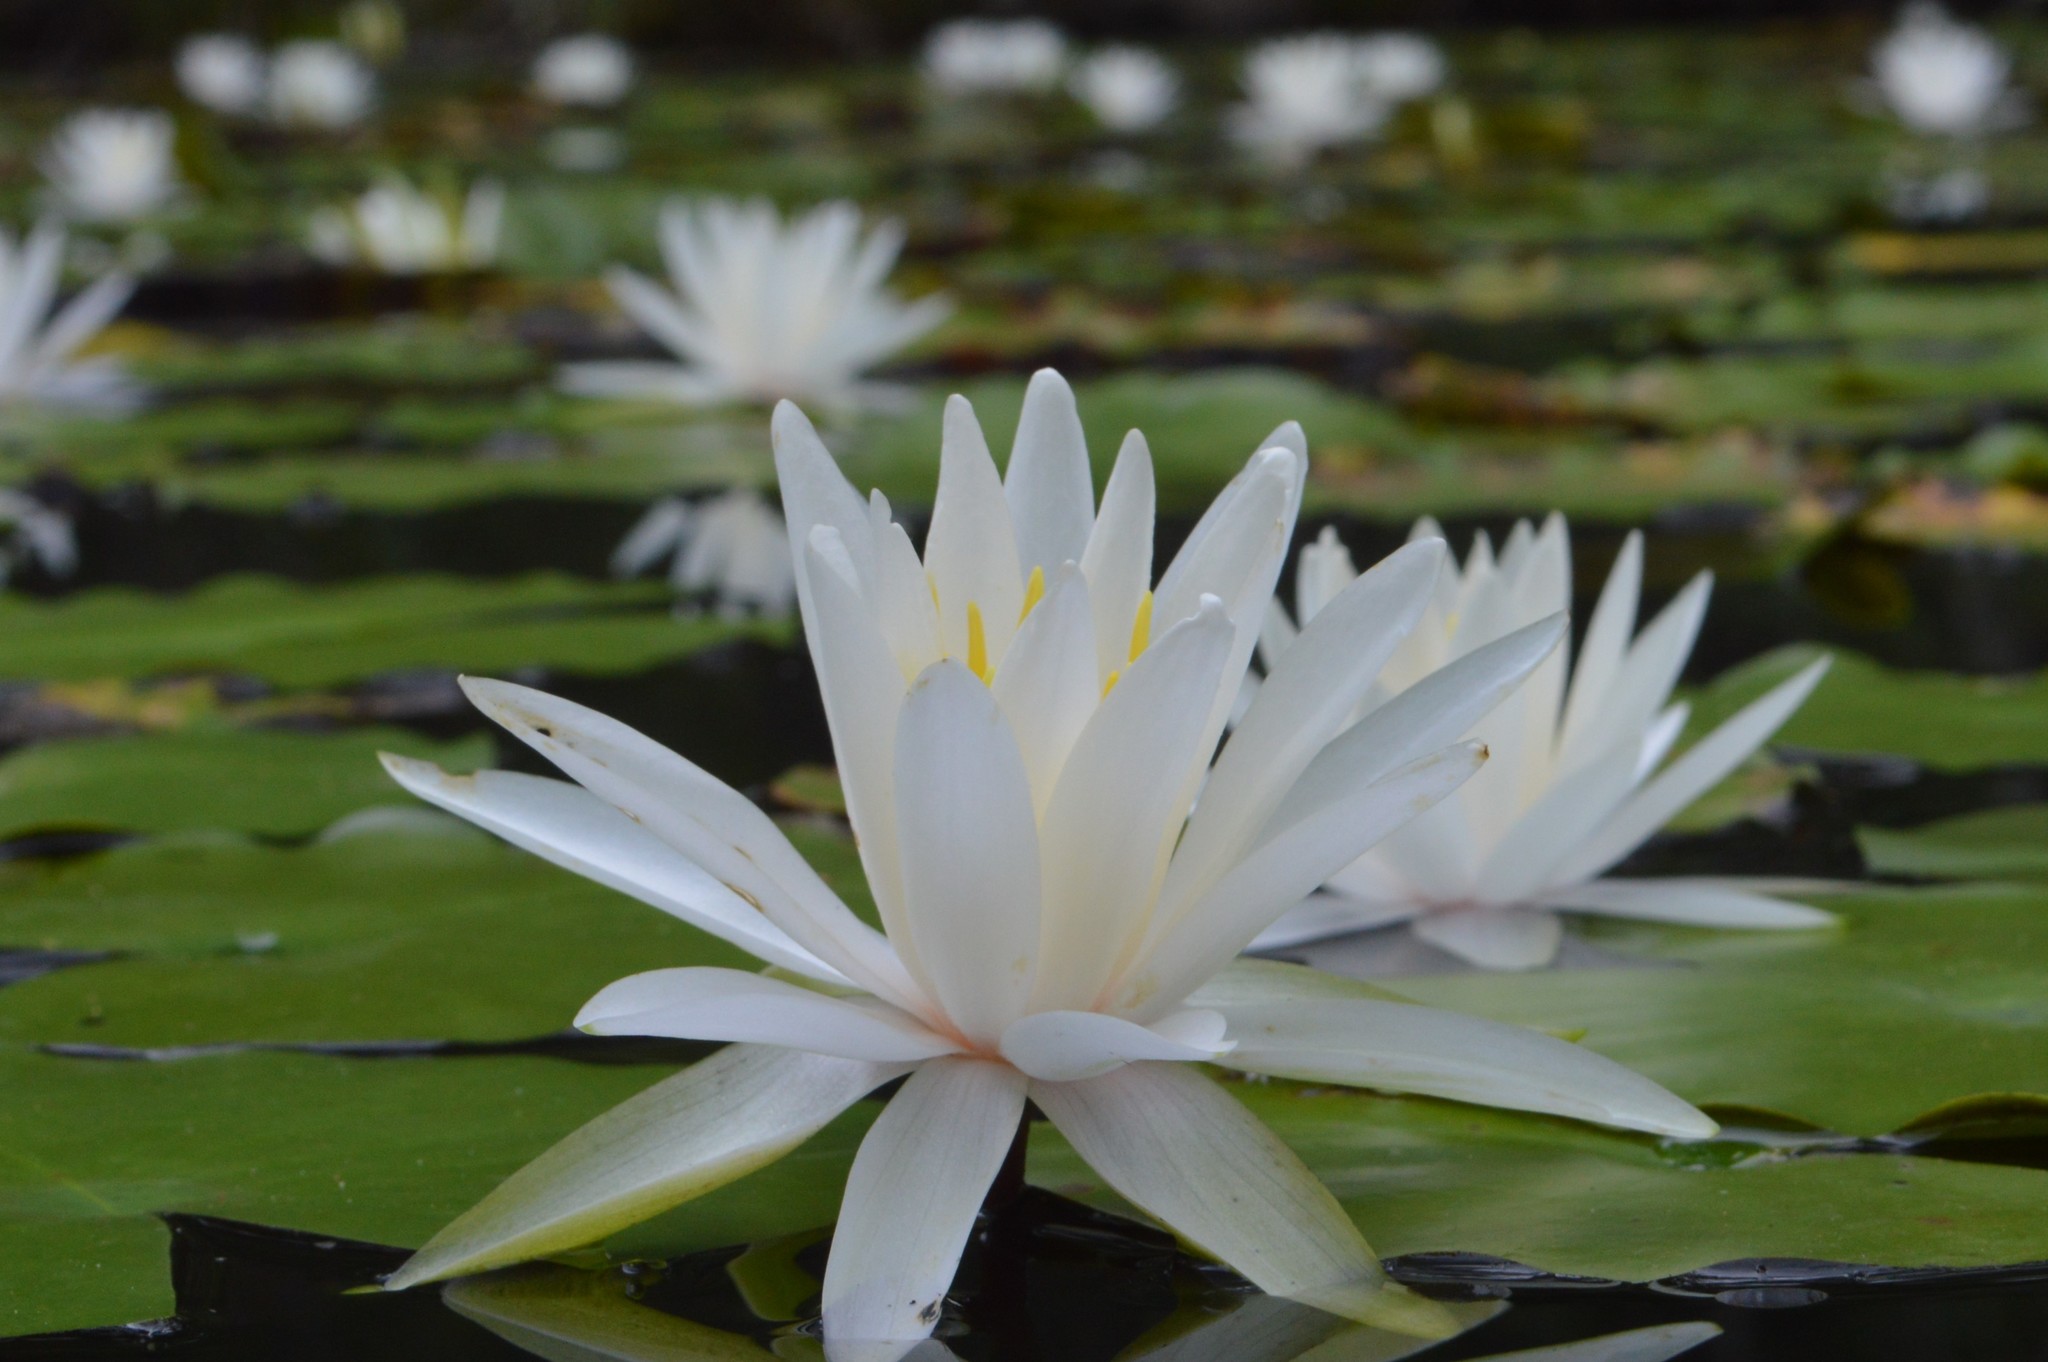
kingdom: Plantae
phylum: Tracheophyta
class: Magnoliopsida
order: Nymphaeales
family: Nymphaeaceae
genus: Nymphaea
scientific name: Nymphaea odorata
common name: Fragrant water-lily
